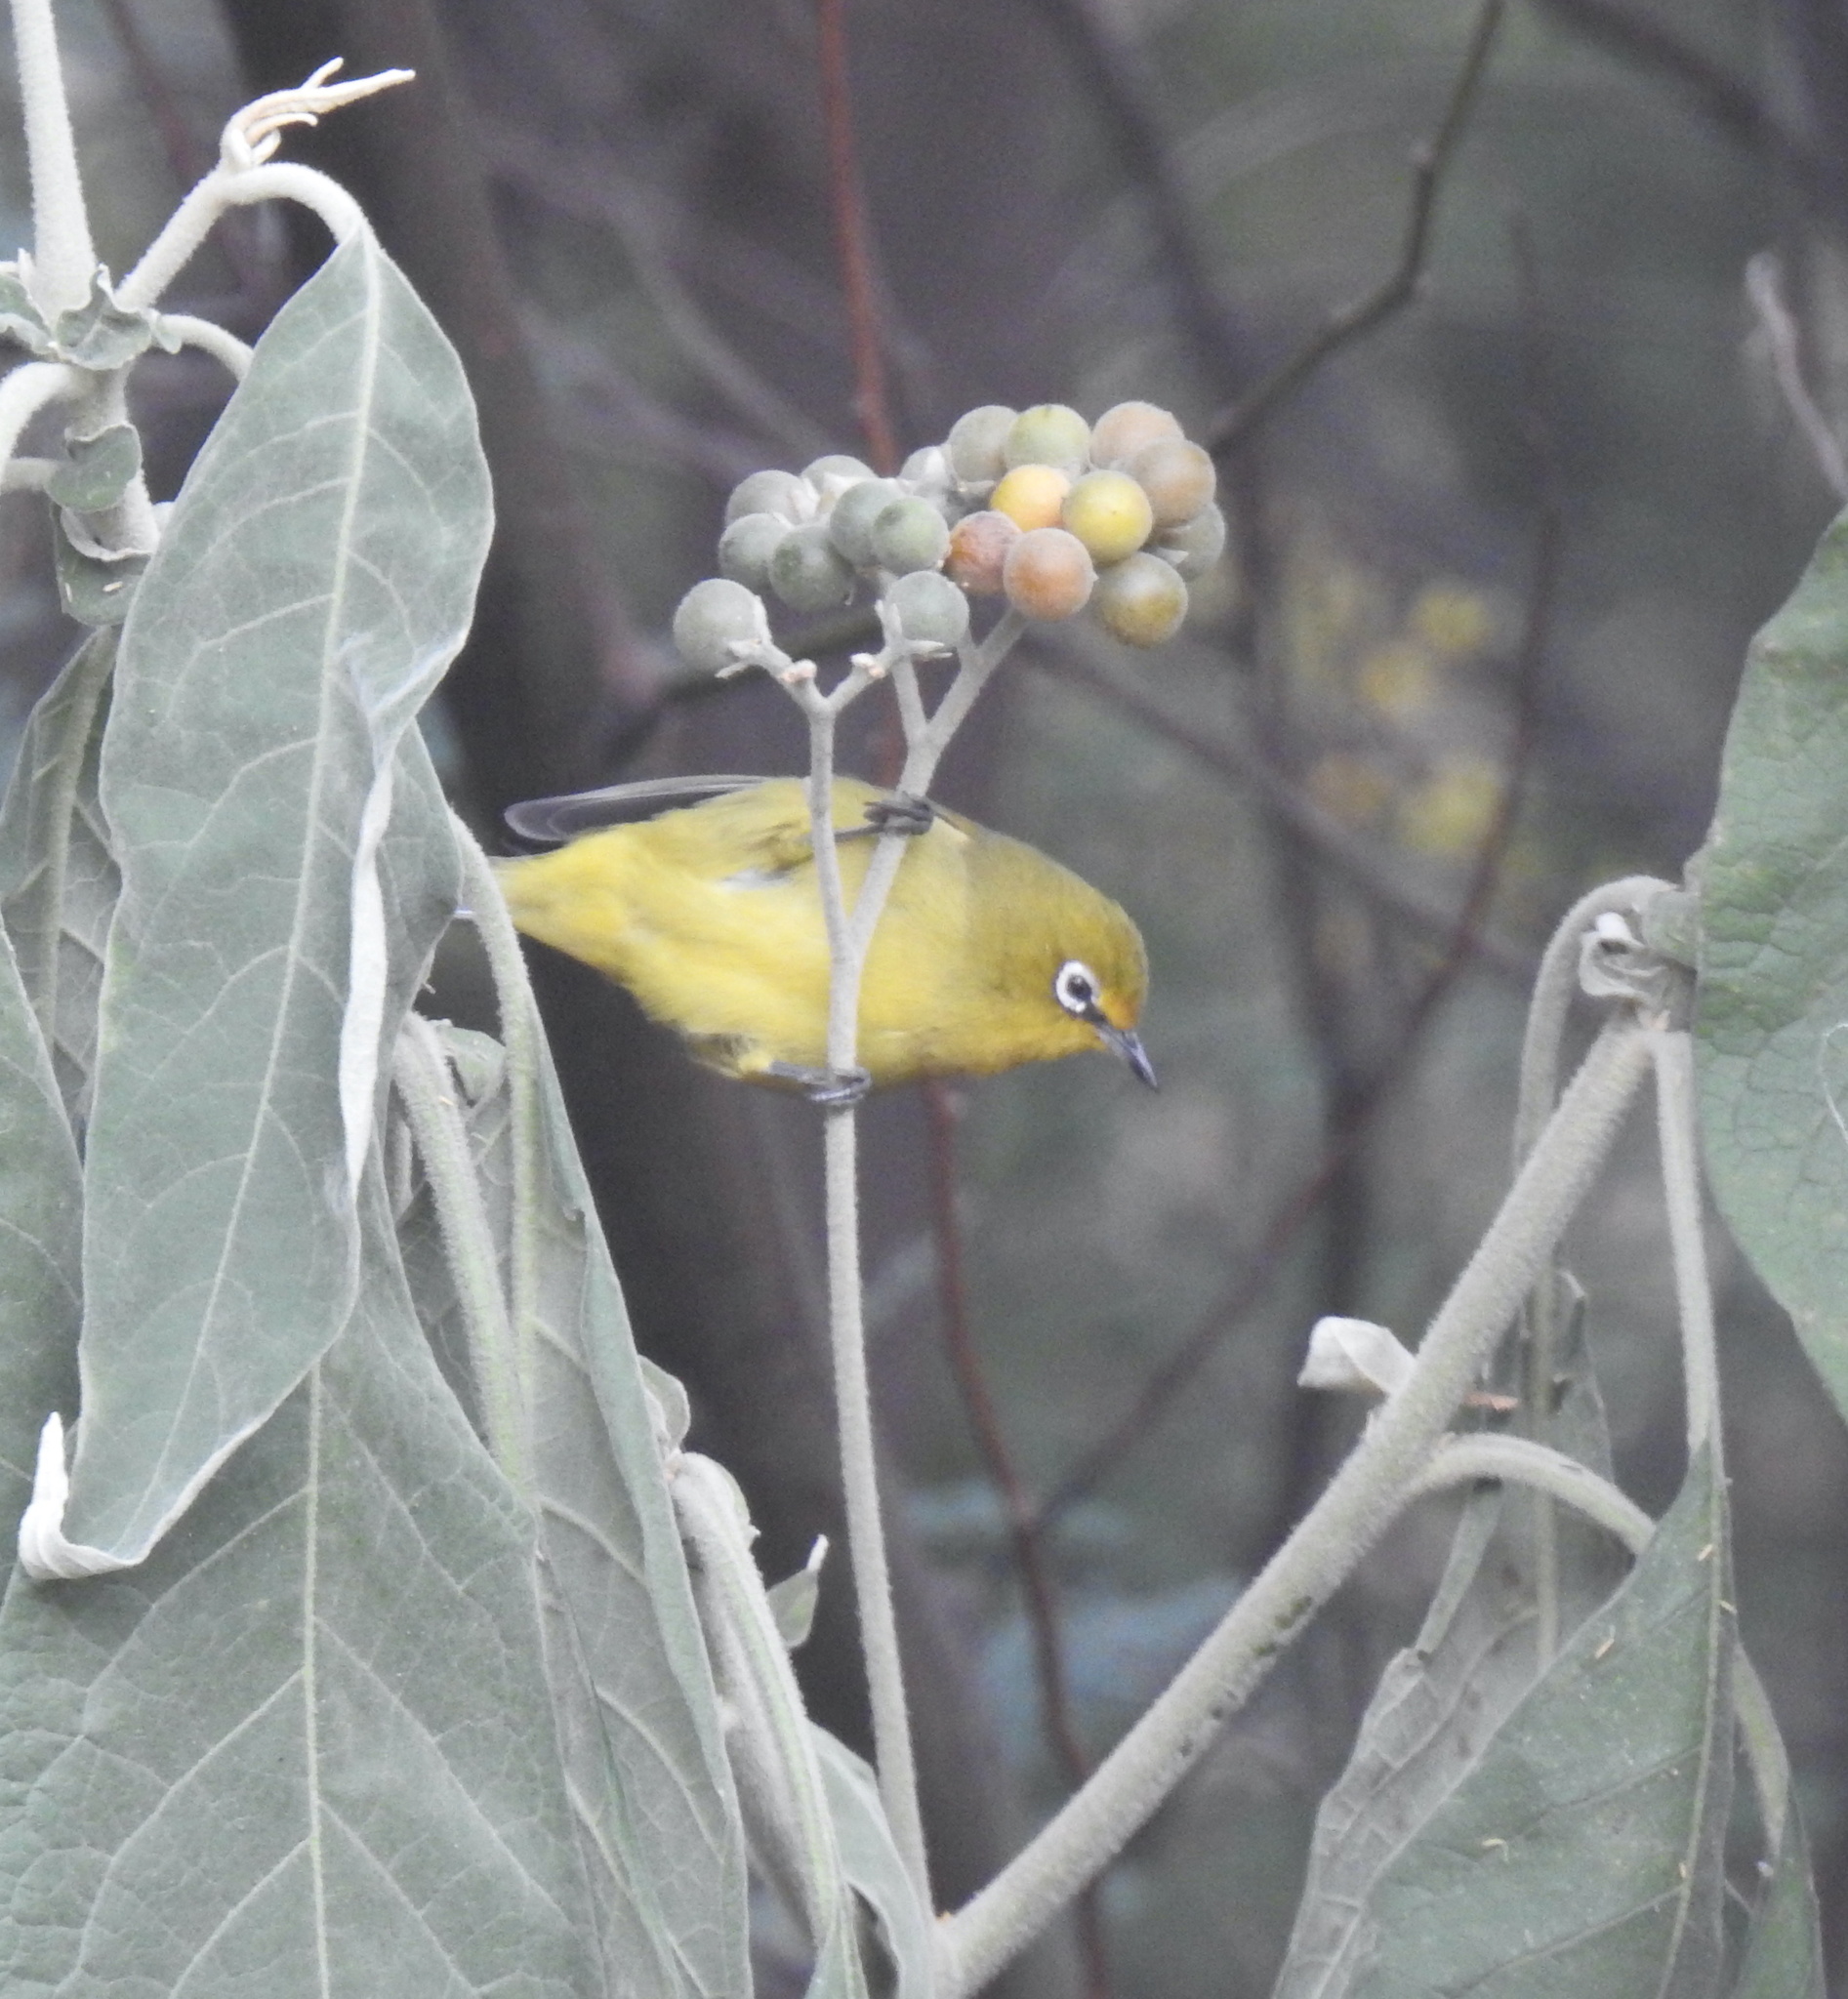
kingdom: Animalia
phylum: Chordata
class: Aves
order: Passeriformes
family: Zosteropidae
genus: Zosterops
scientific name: Zosterops virens
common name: Cape white-eye
